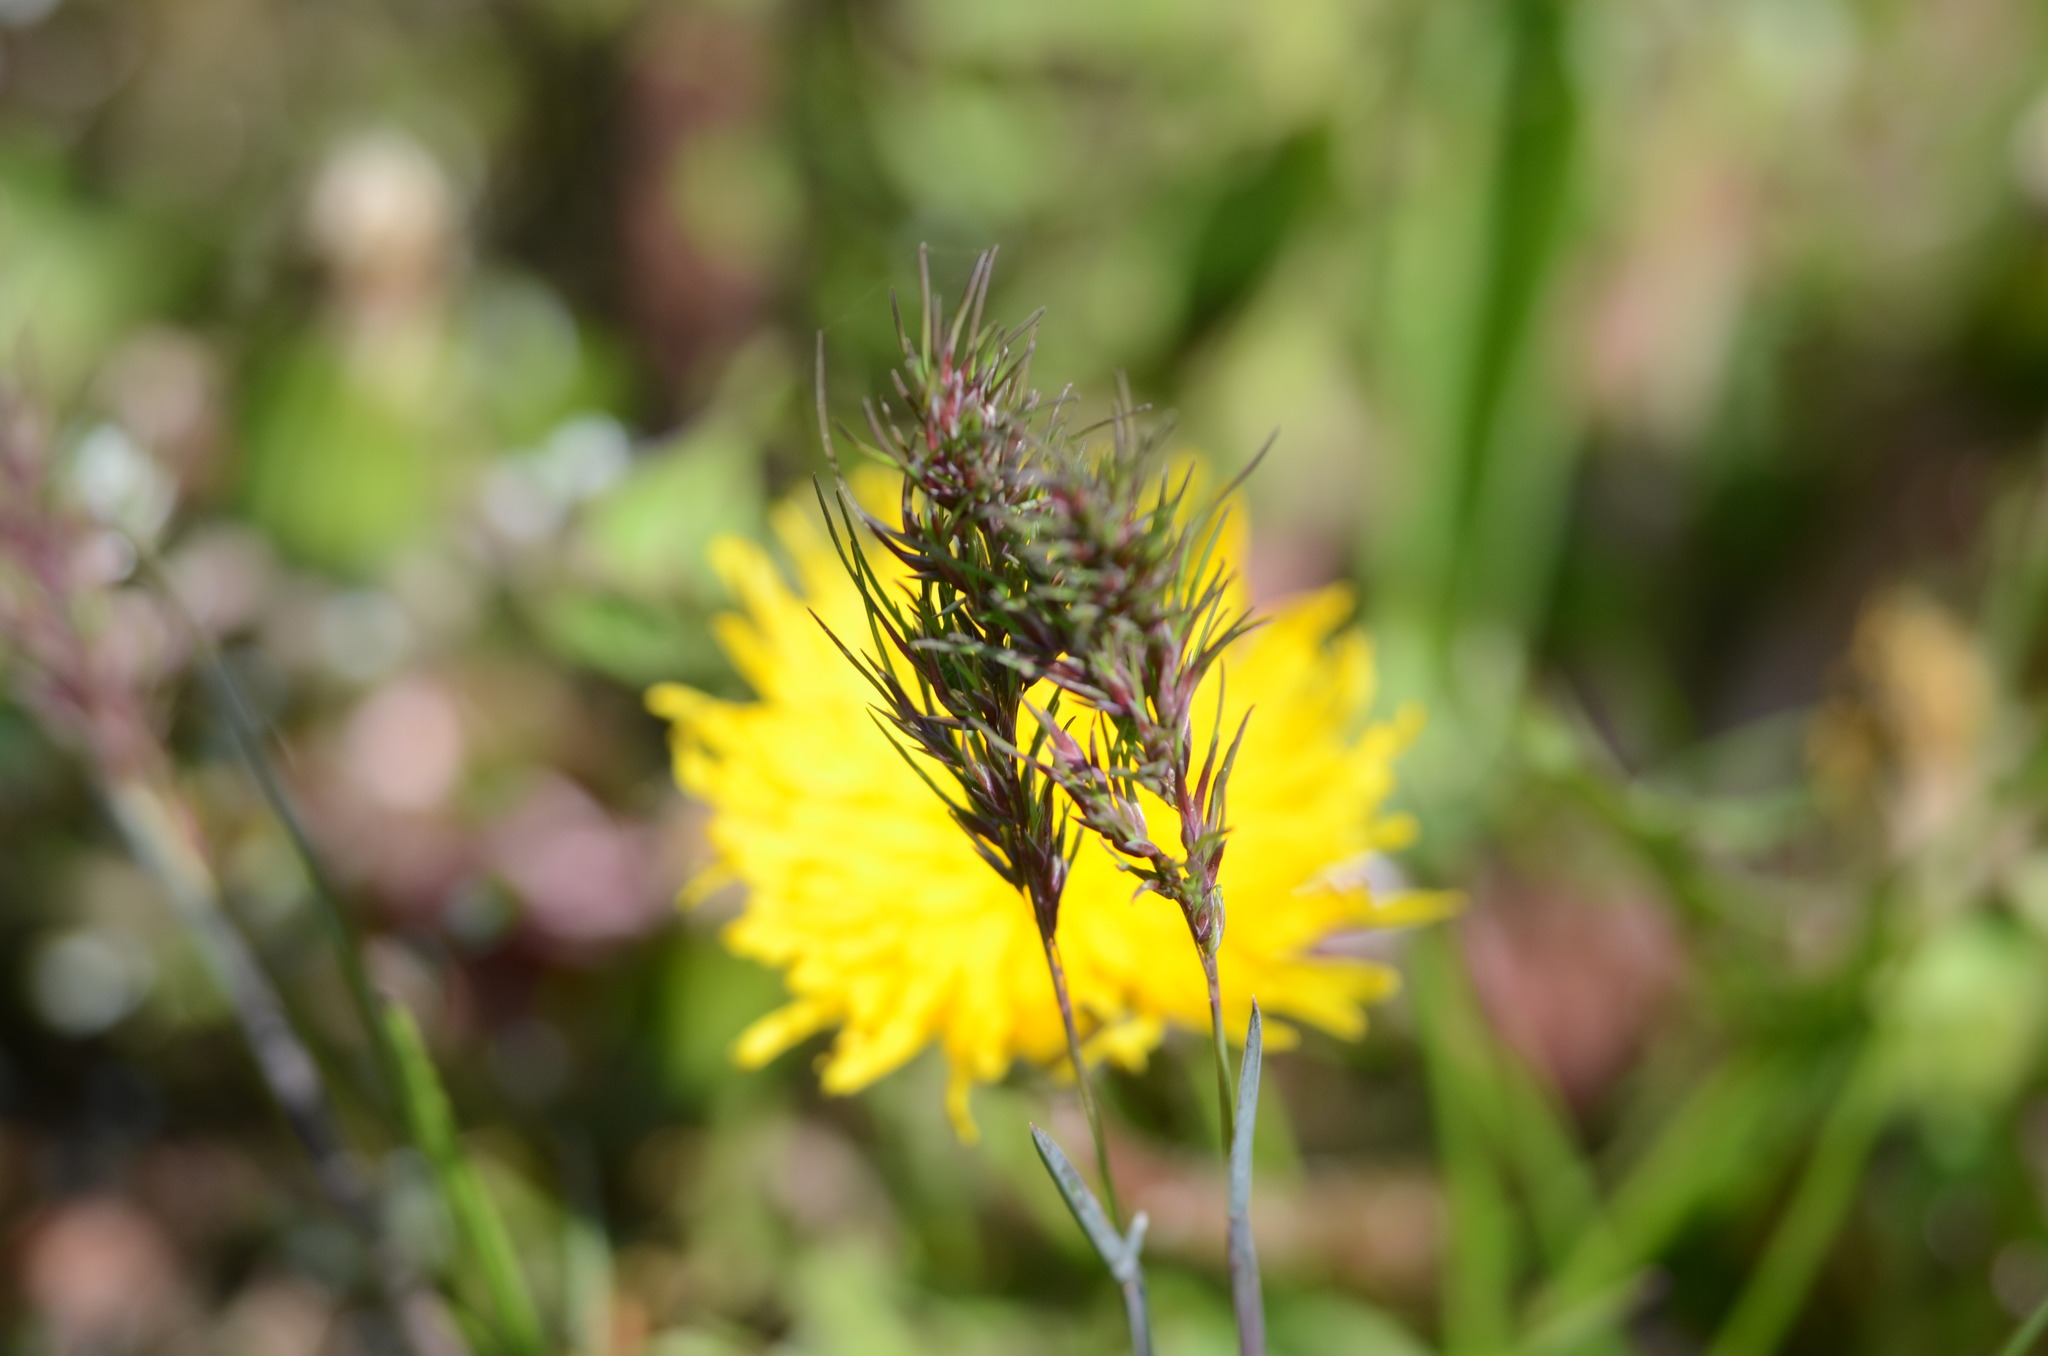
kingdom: Plantae
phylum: Tracheophyta
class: Liliopsida
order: Poales
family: Poaceae
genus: Poa
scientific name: Poa bulbosa
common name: Bulbous bluegrass
